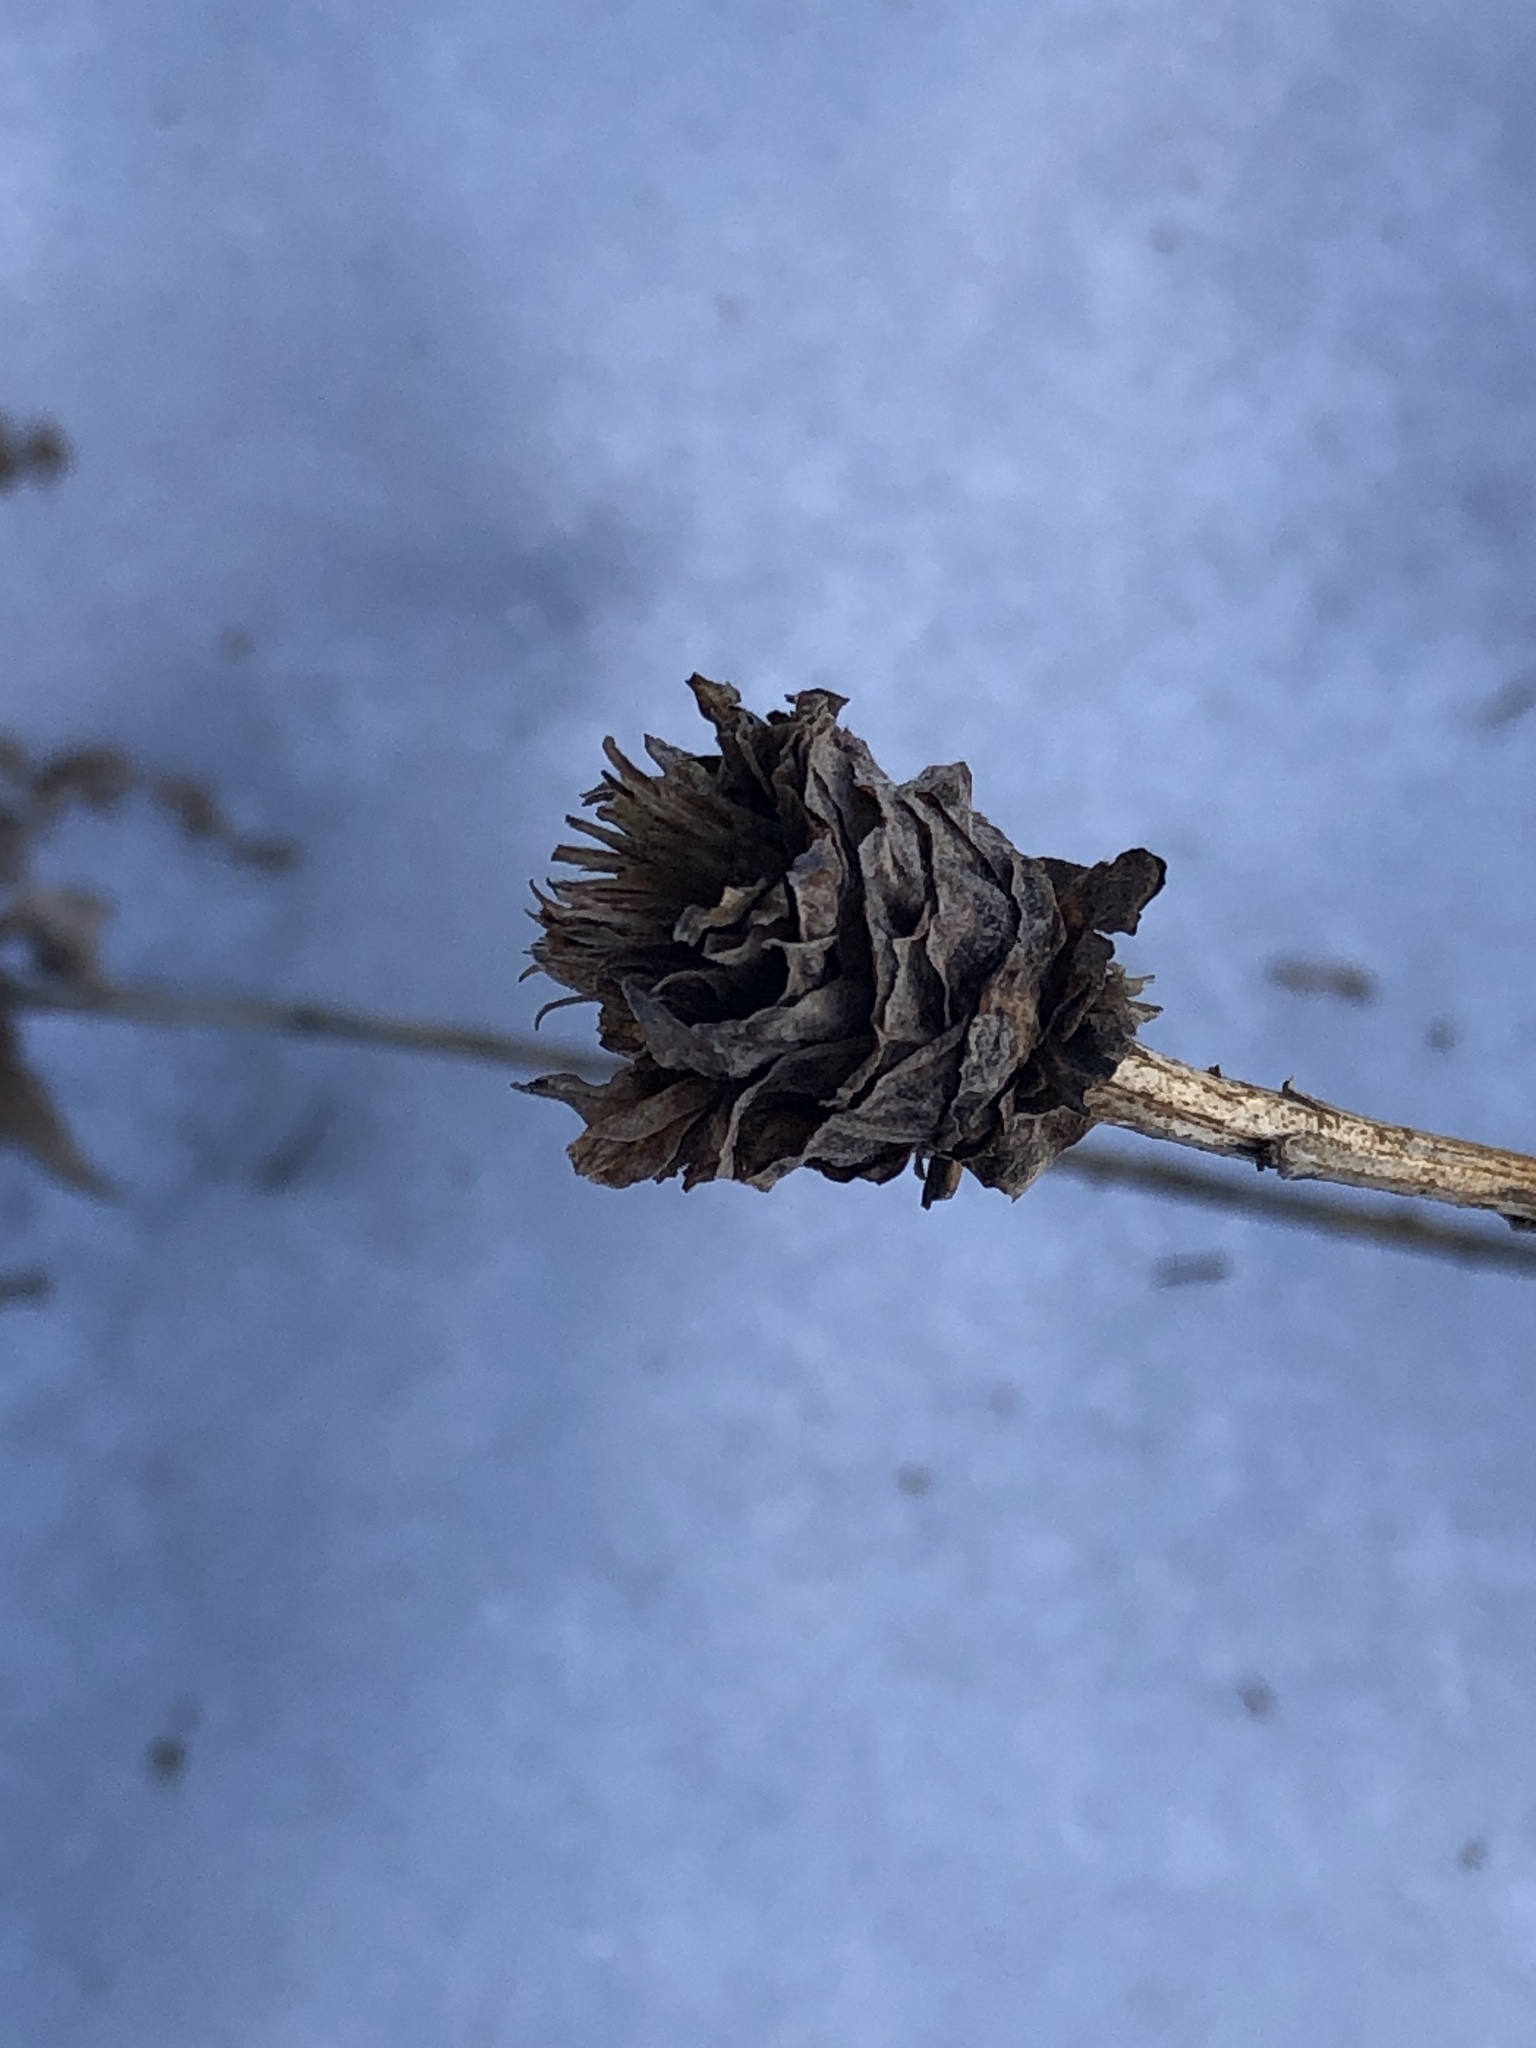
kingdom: Animalia
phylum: Arthropoda
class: Insecta
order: Diptera
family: Cecidomyiidae
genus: Rhopalomyia
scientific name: Rhopalomyia solidaginis
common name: Goldenrod bunch gall midge
